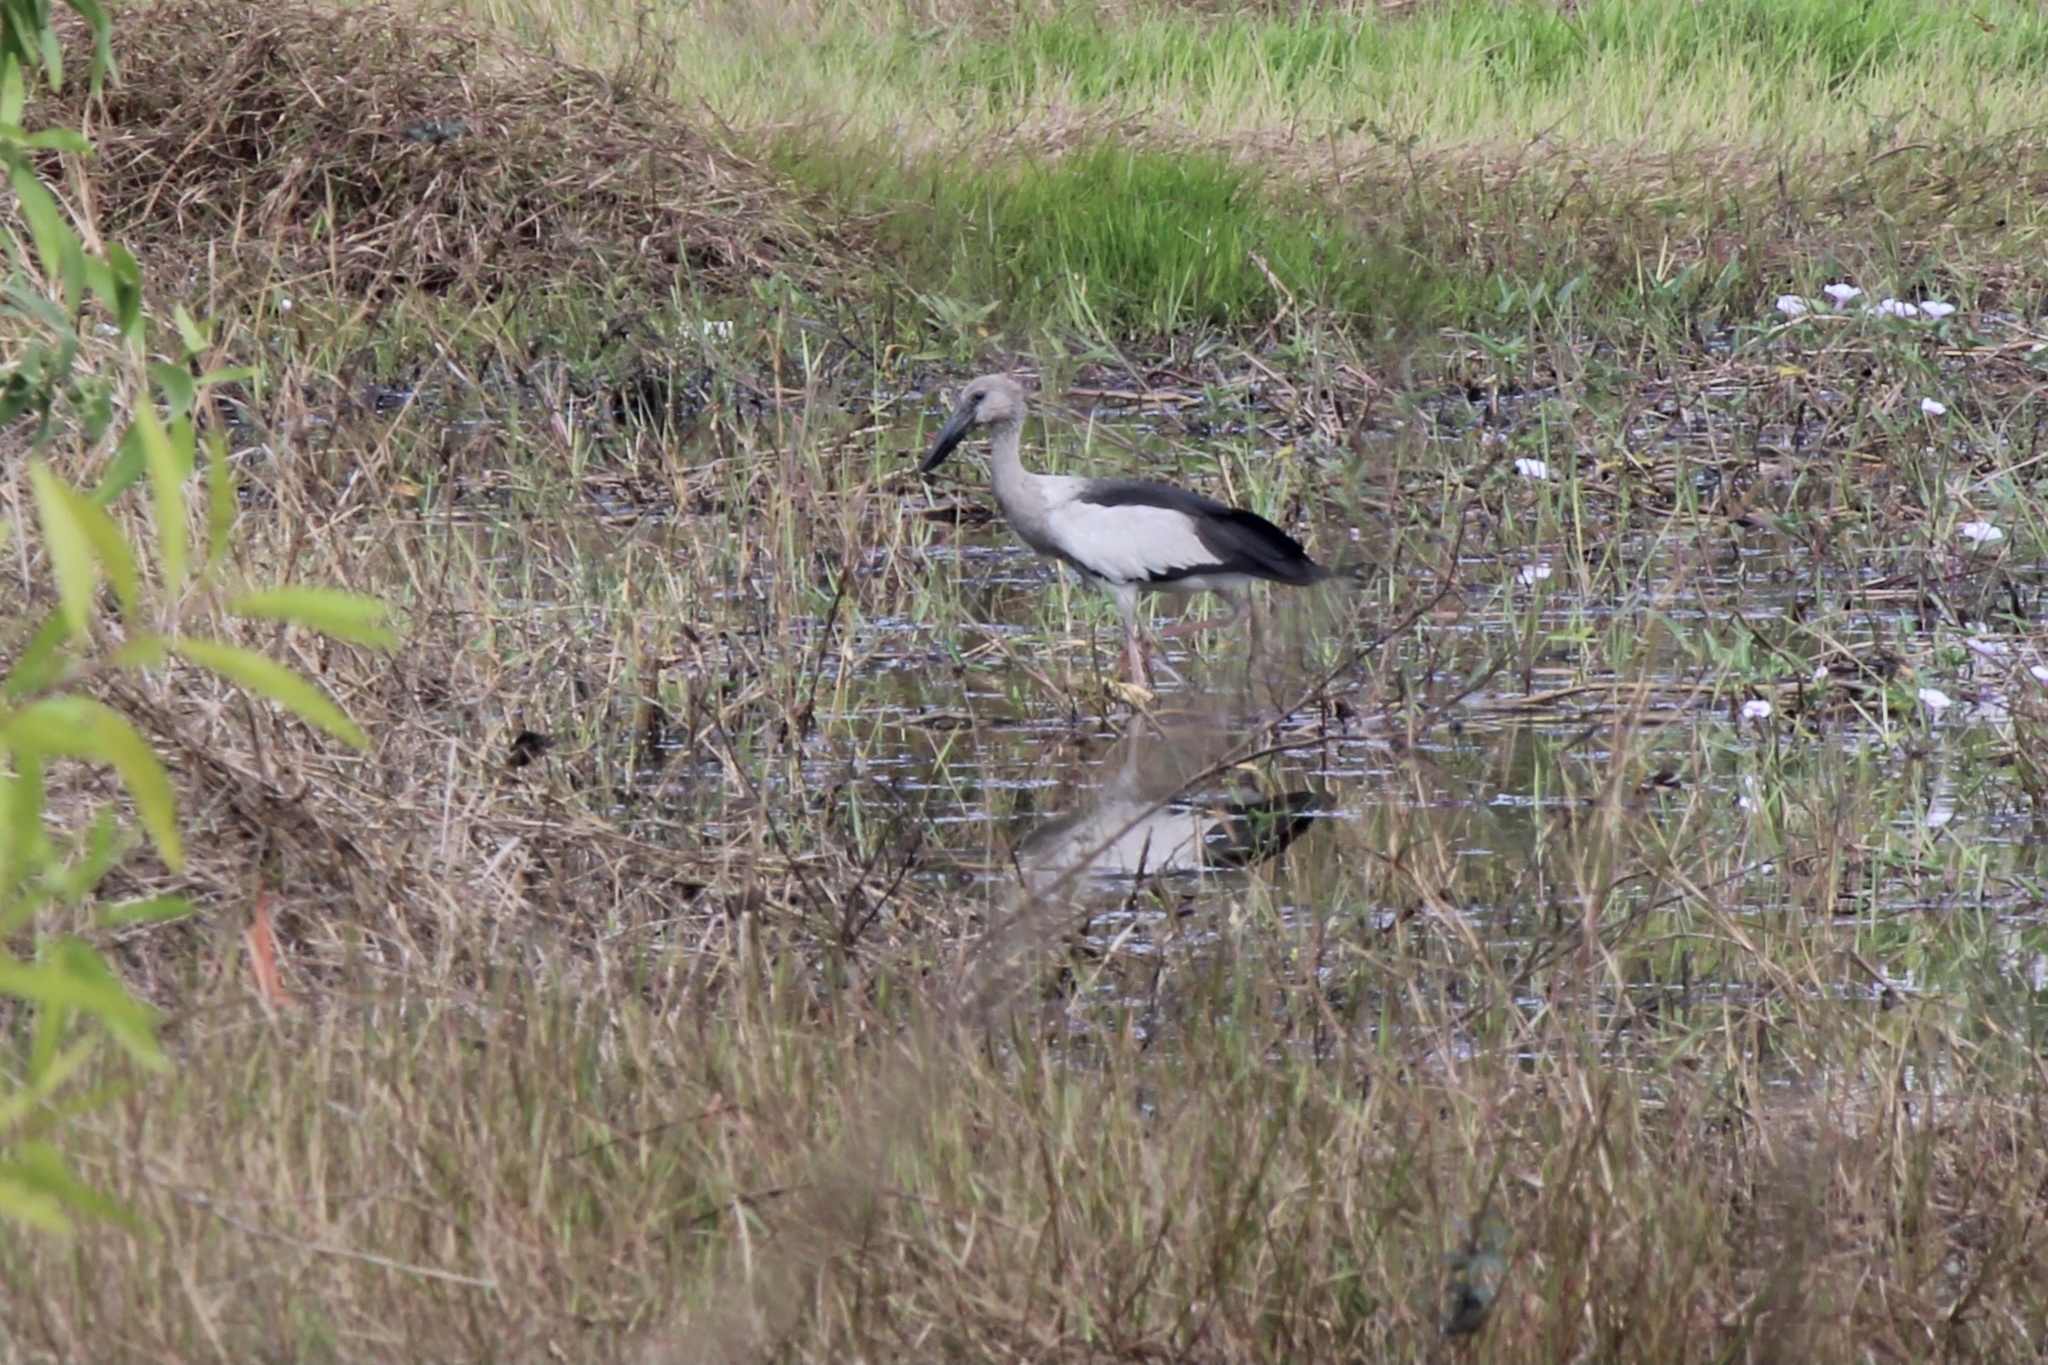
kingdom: Animalia
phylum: Chordata
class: Aves
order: Ciconiiformes
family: Ciconiidae
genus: Anastomus
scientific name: Anastomus oscitans
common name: Asian openbill
